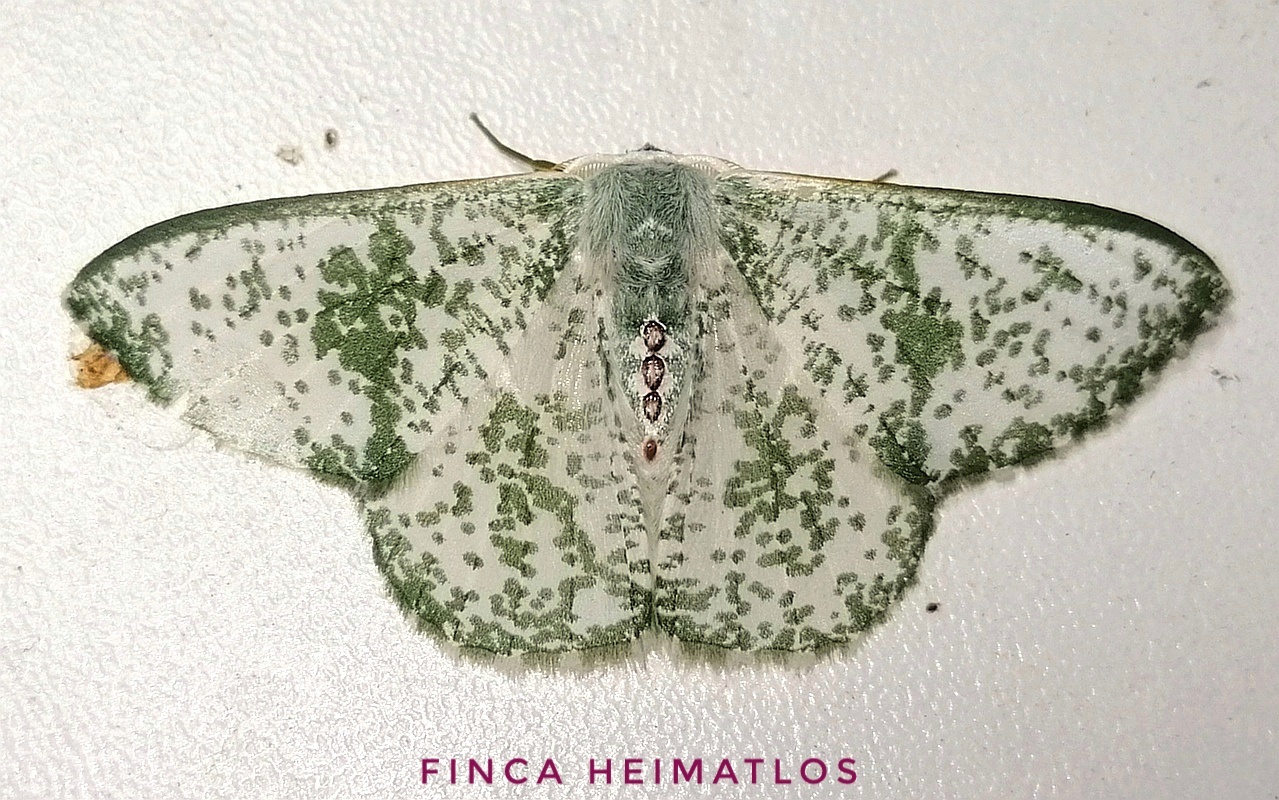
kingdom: Animalia
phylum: Arthropoda
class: Insecta
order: Lepidoptera
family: Geometridae
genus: Oospila
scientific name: Oospila sporadata
